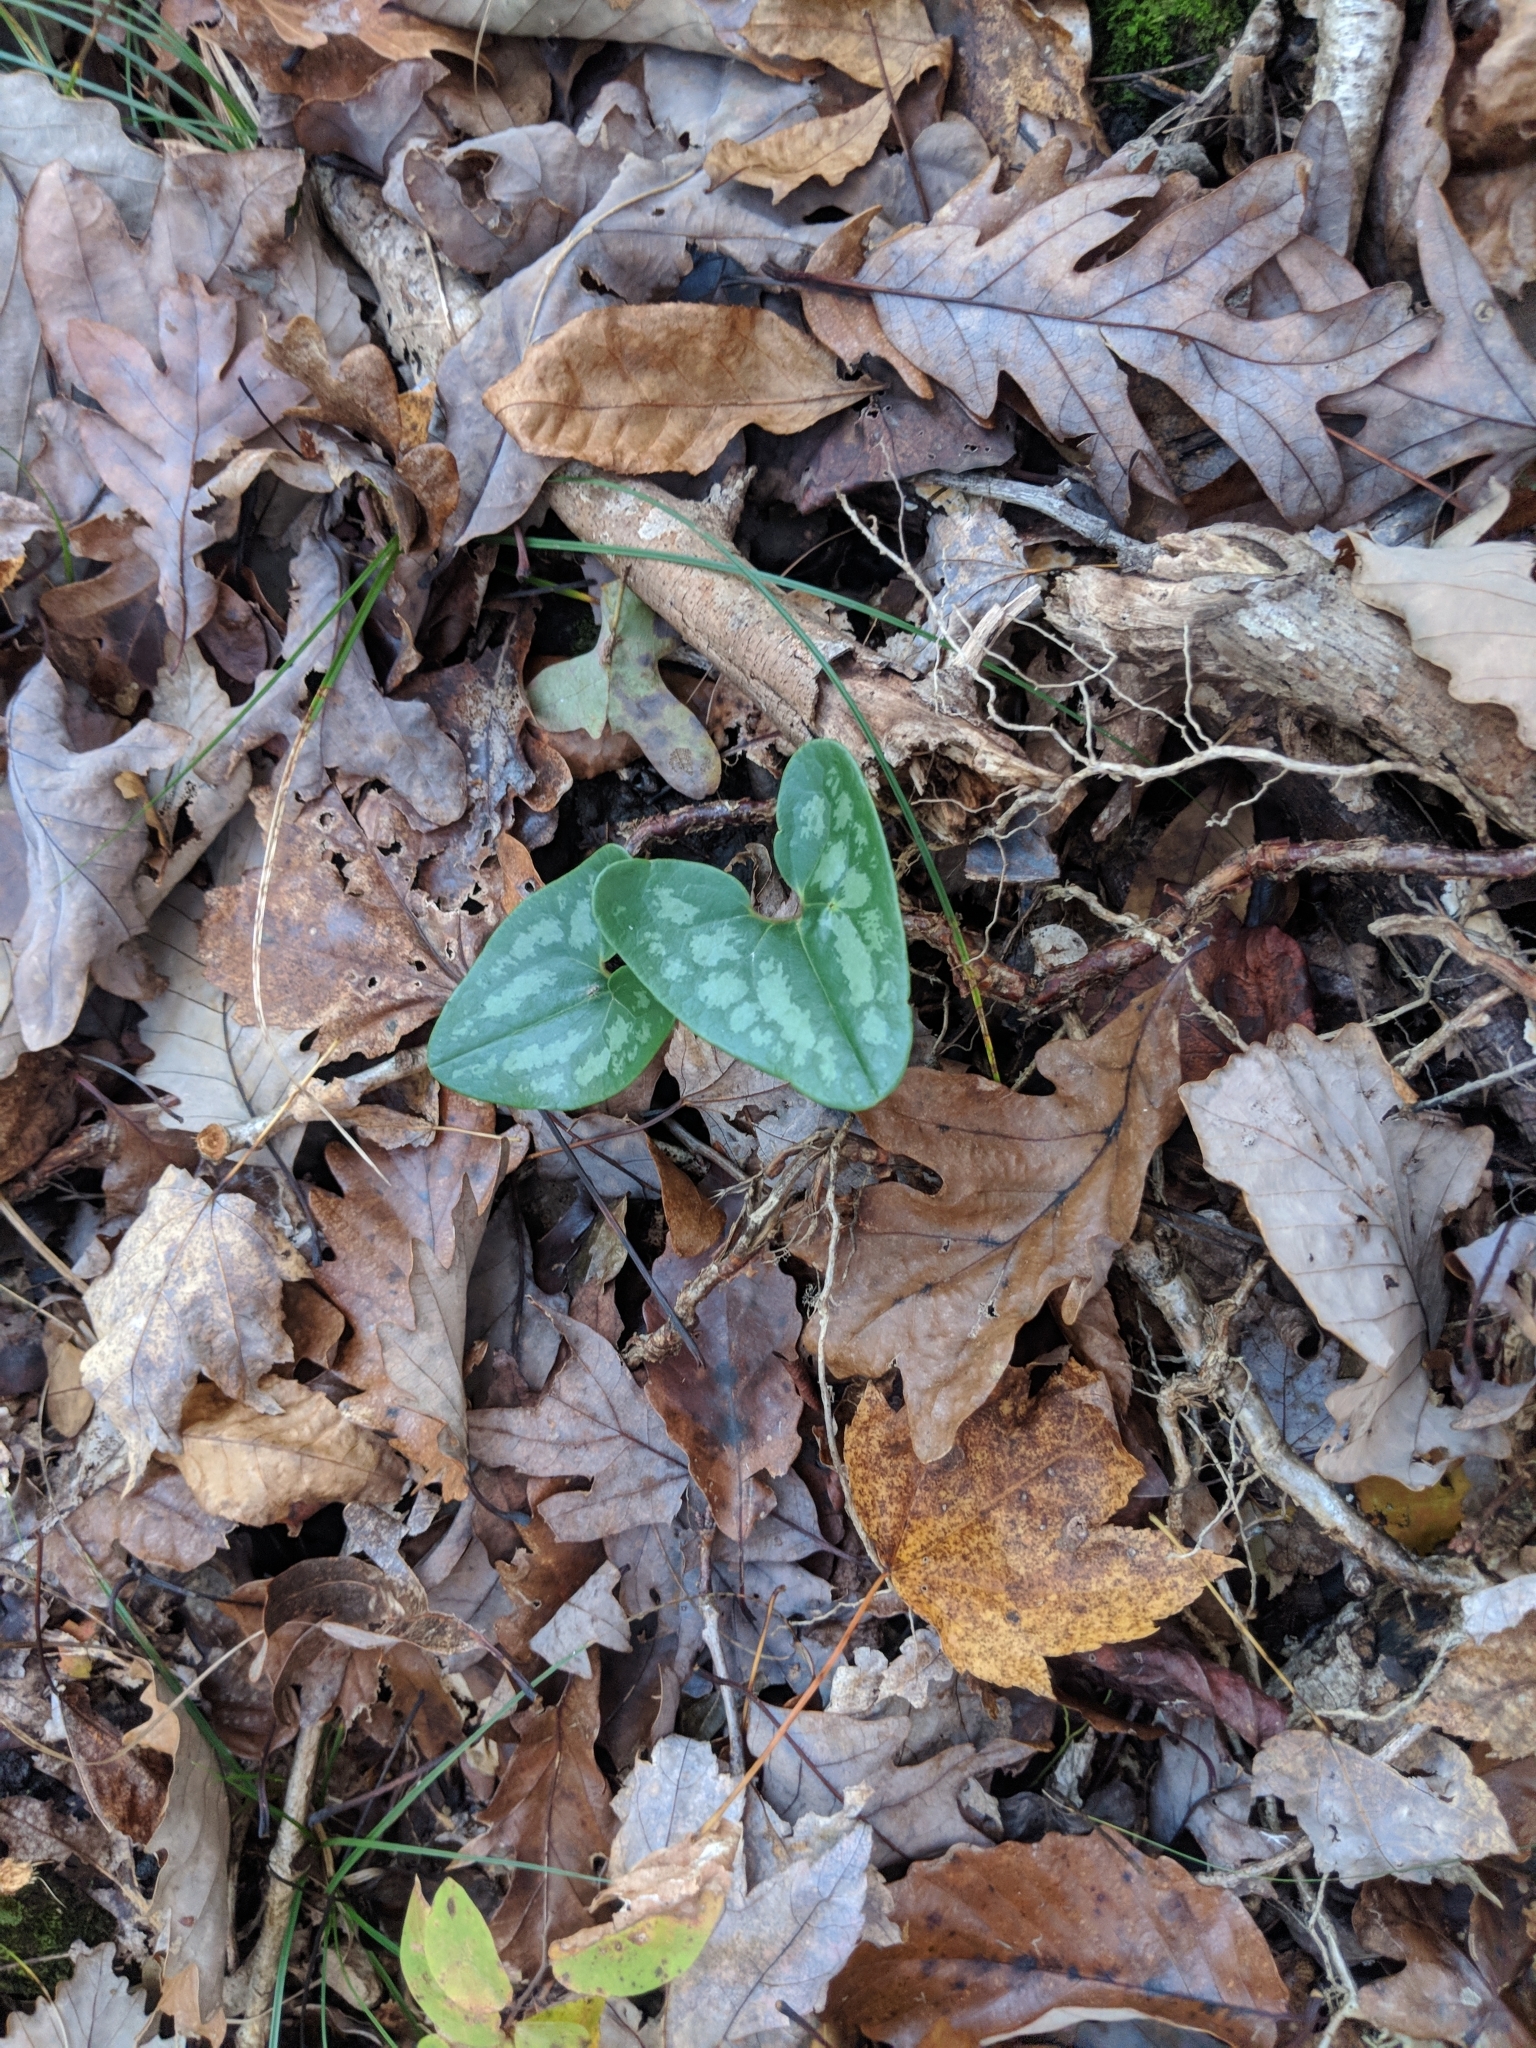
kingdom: Plantae
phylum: Tracheophyta
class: Magnoliopsida
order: Piperales
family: Aristolochiaceae
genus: Hexastylis
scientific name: Hexastylis arifolia
